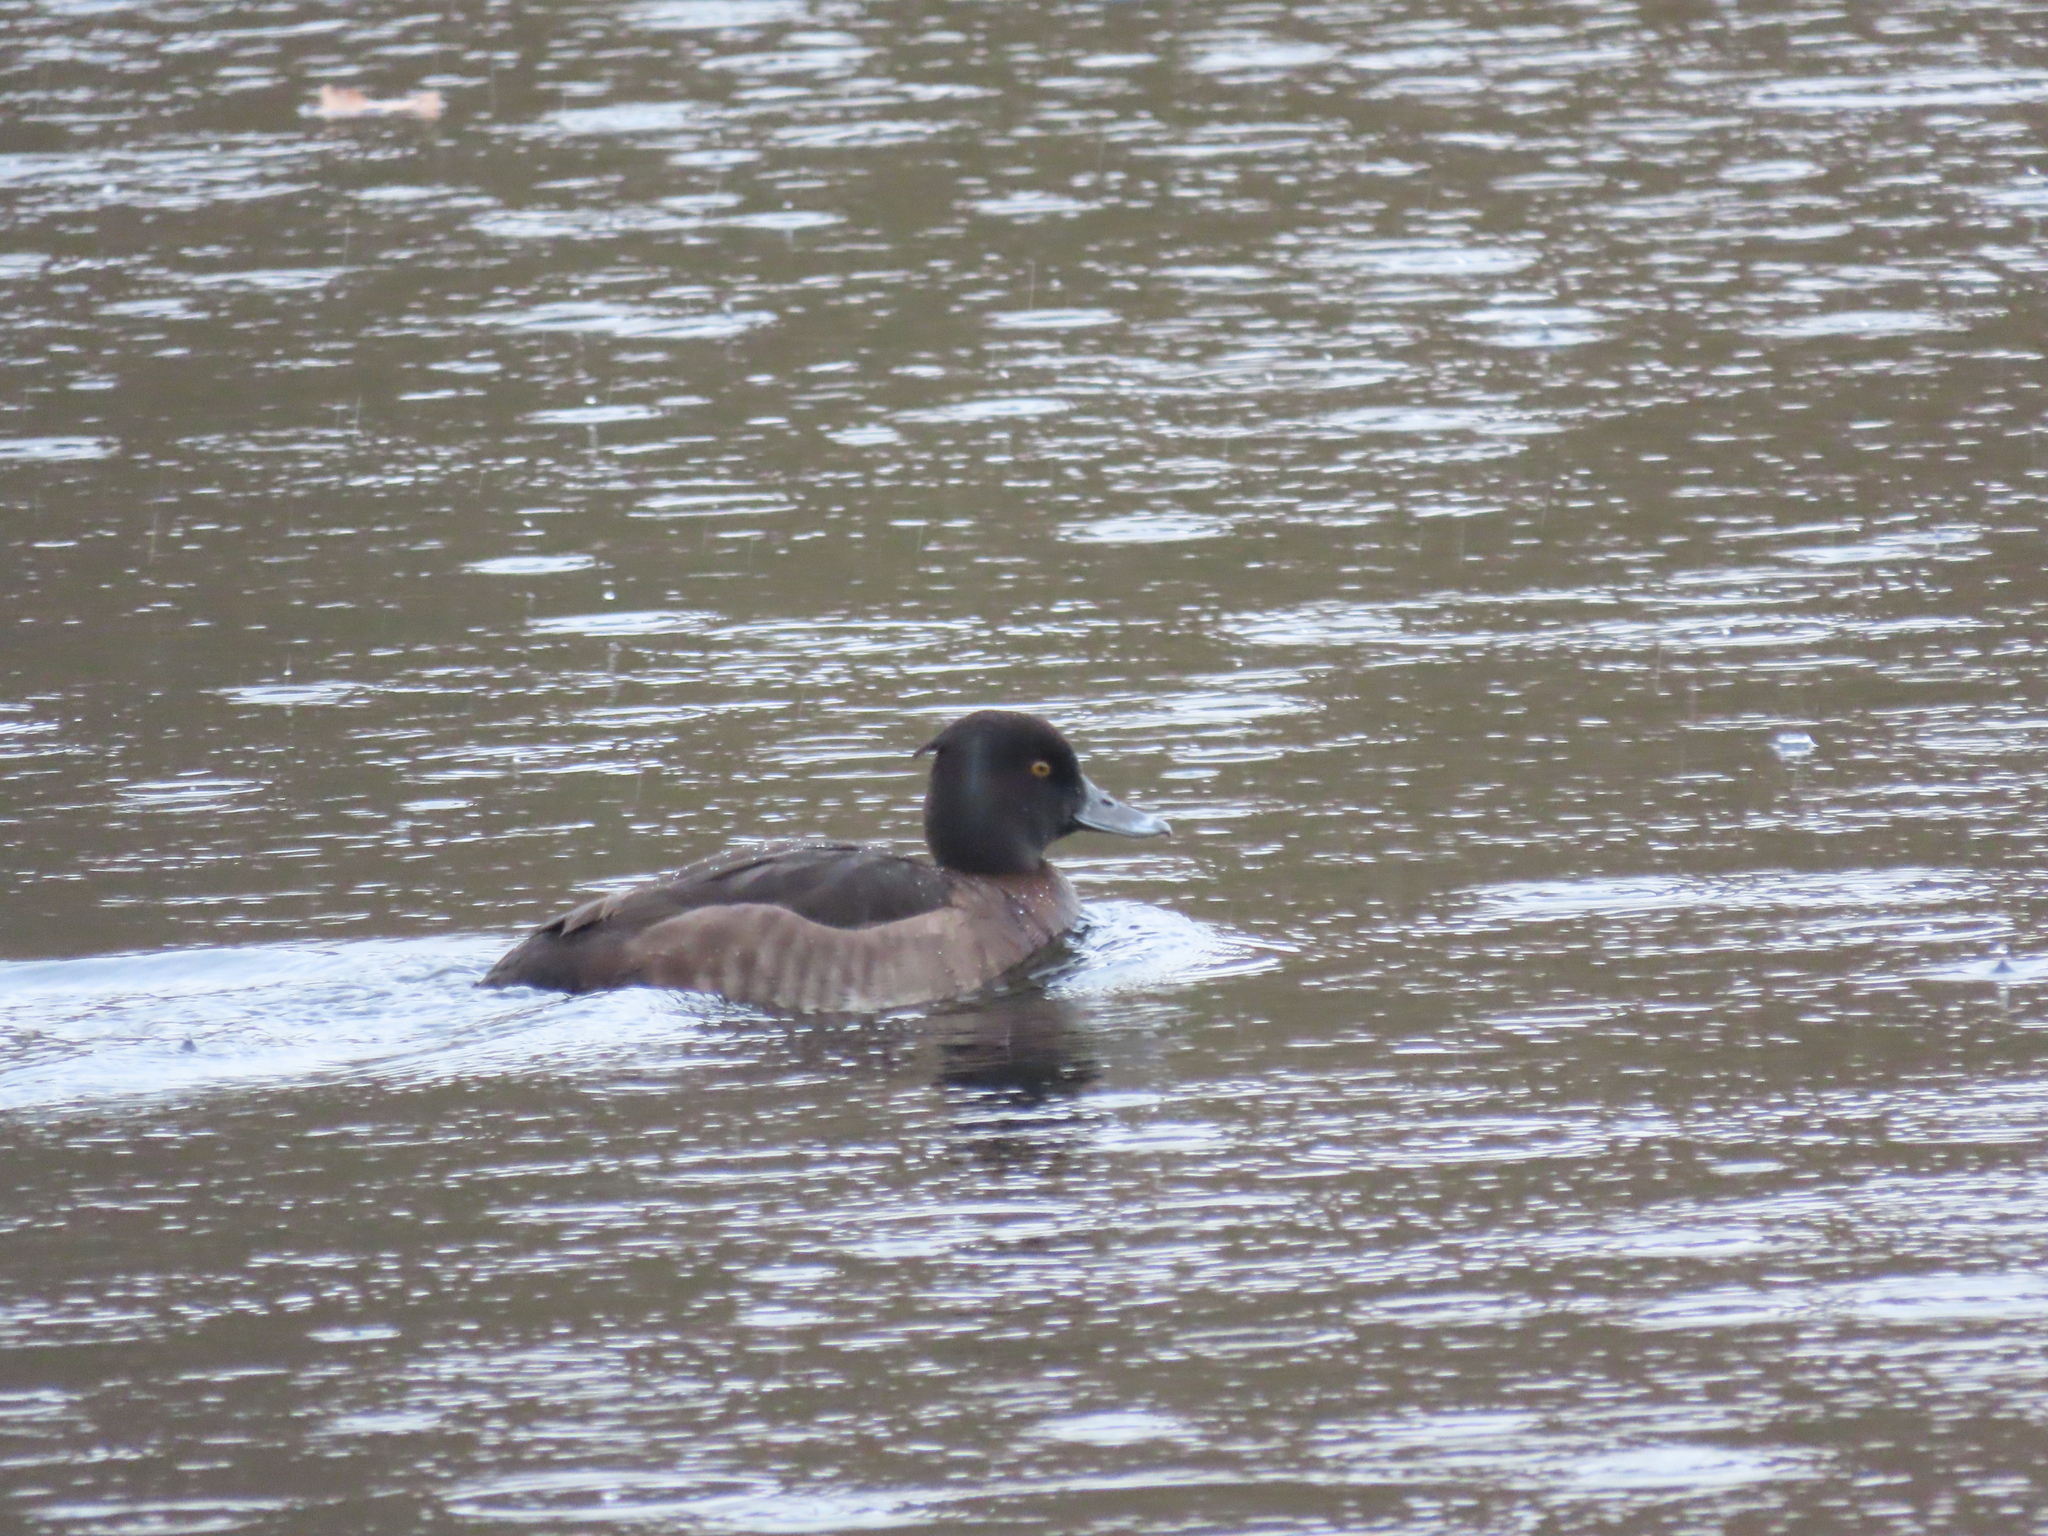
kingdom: Animalia
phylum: Chordata
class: Aves
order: Anseriformes
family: Anatidae
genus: Aythya
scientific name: Aythya fuligula
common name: Tufted duck
